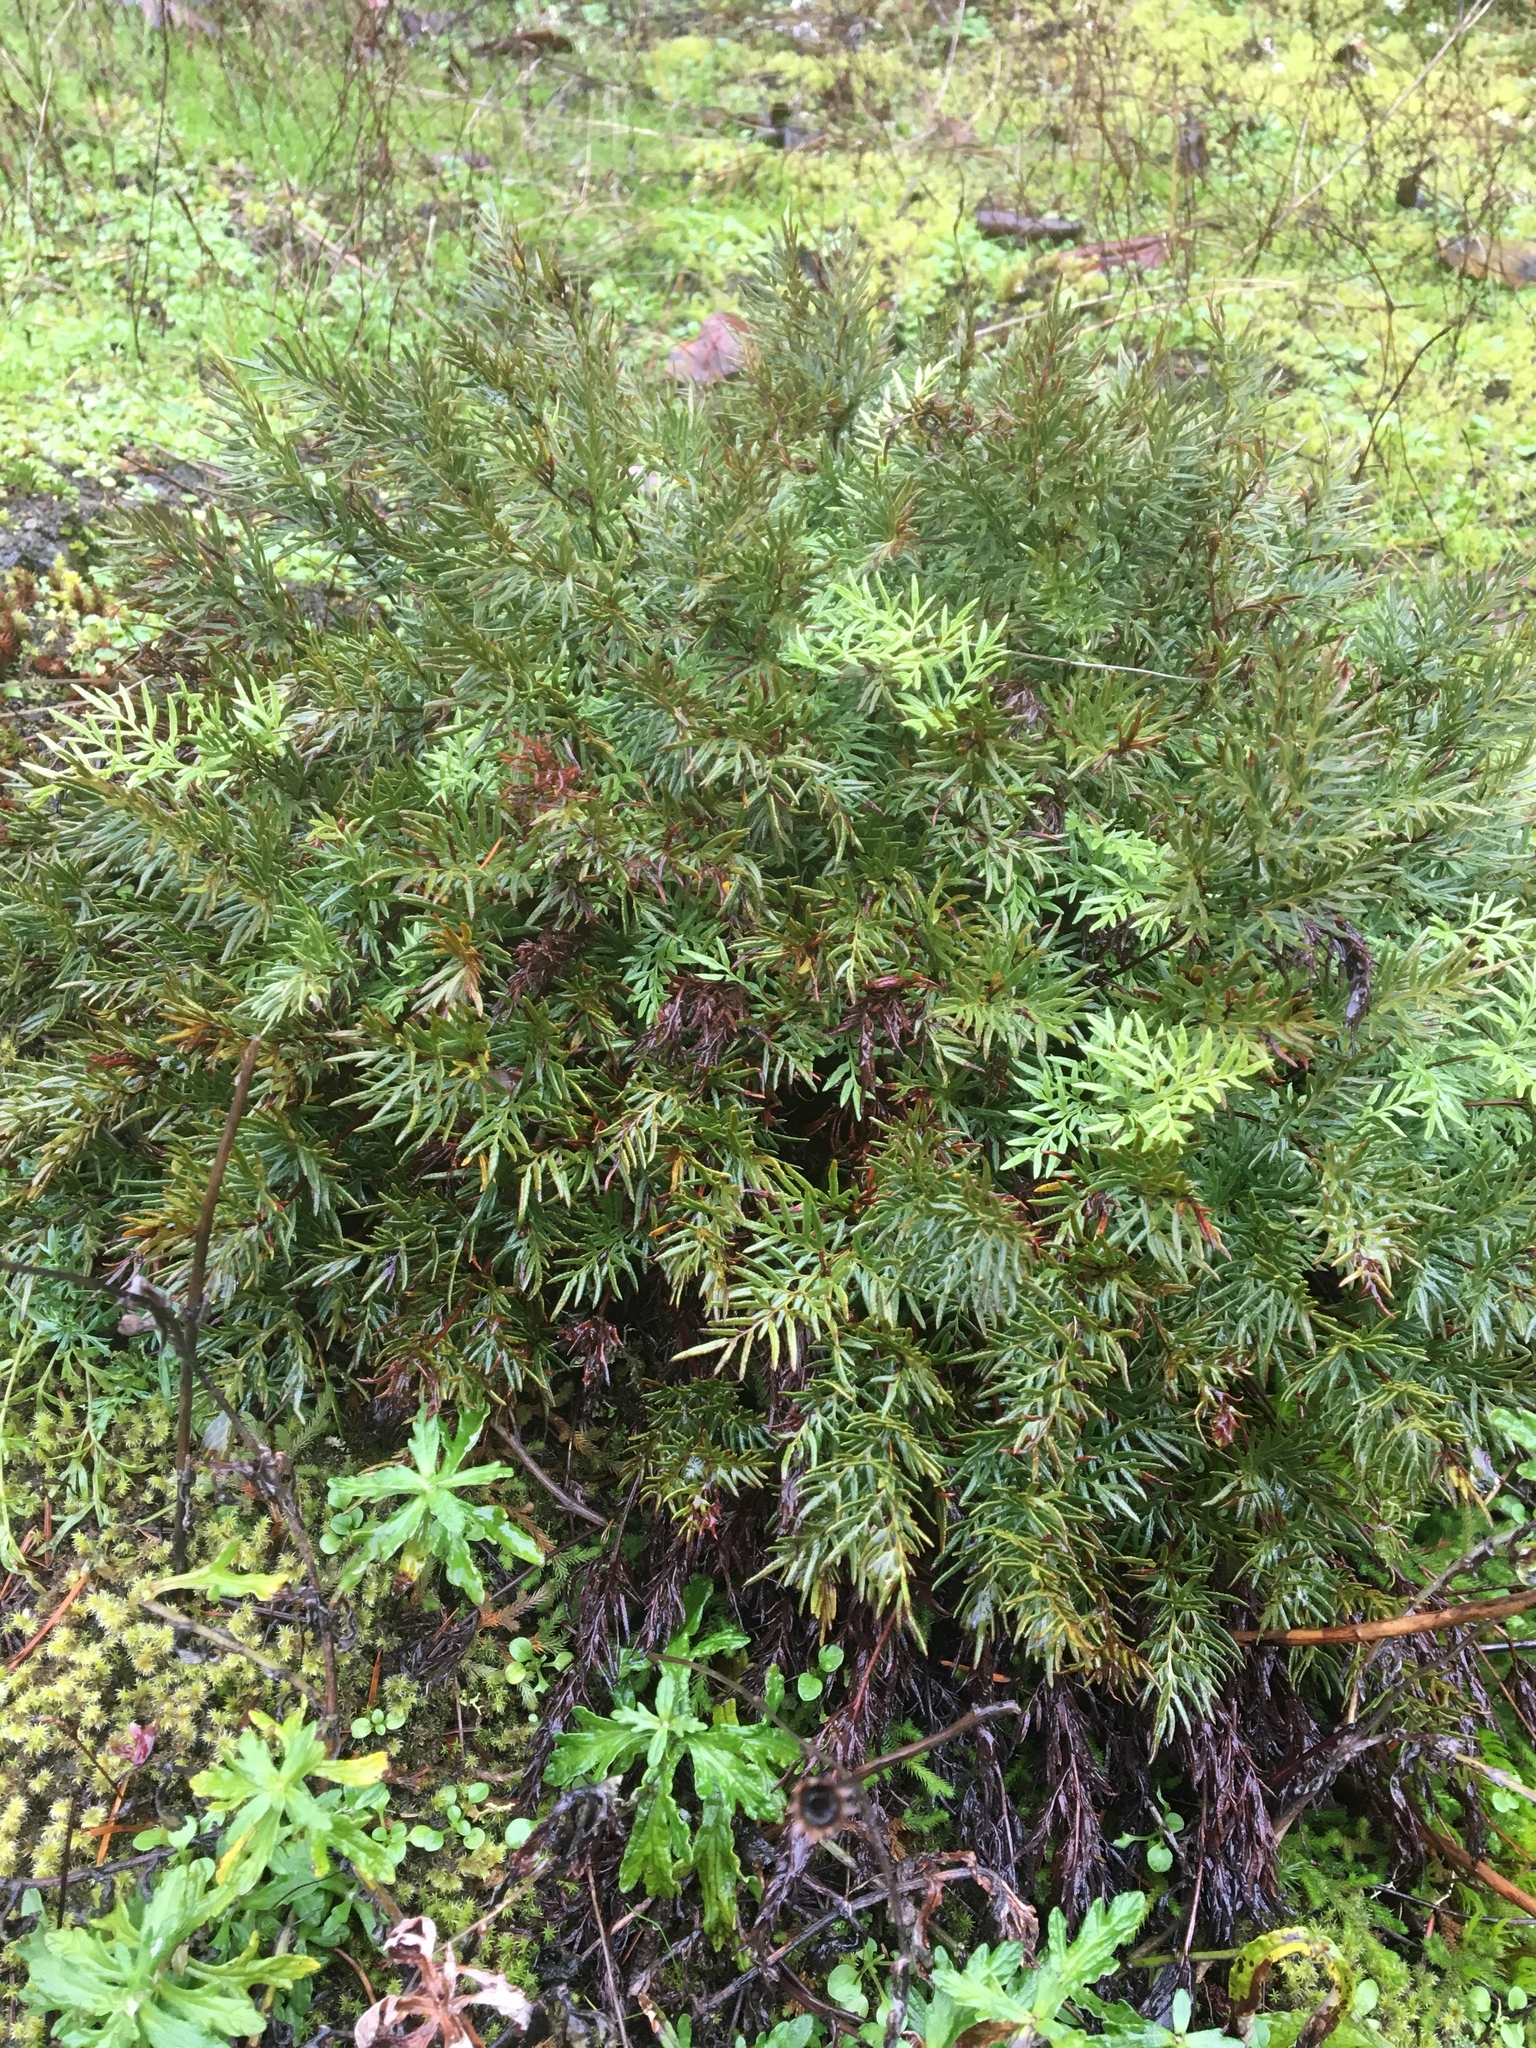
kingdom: Plantae
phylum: Tracheophyta
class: Polypodiopsida
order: Polypodiales
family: Pteridaceae
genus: Aspidotis
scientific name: Aspidotis densa
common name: Indian's dream
